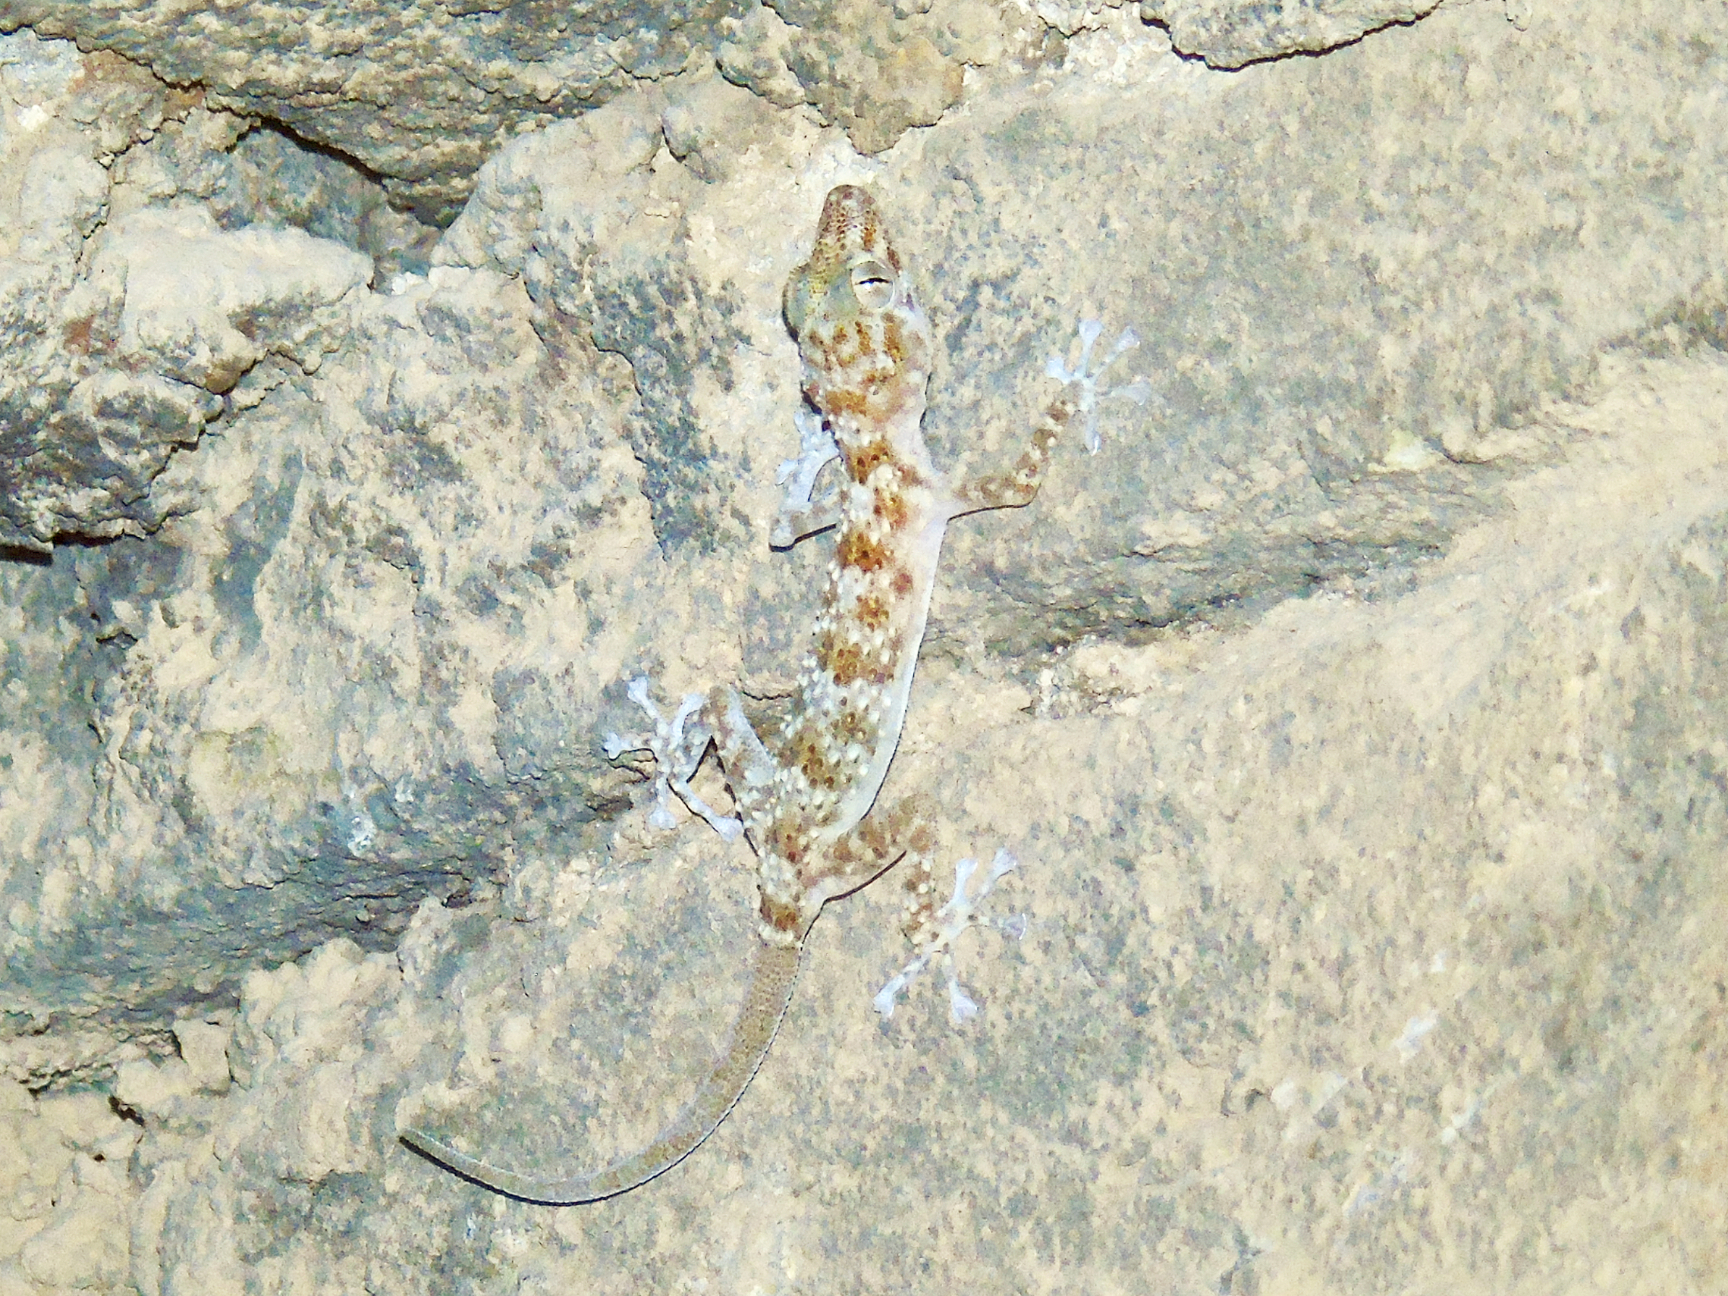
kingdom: Animalia
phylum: Chordata
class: Squamata
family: Phyllodactylidae
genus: Asaccus
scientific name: Asaccus elisae
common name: Leaf-toed gecko
